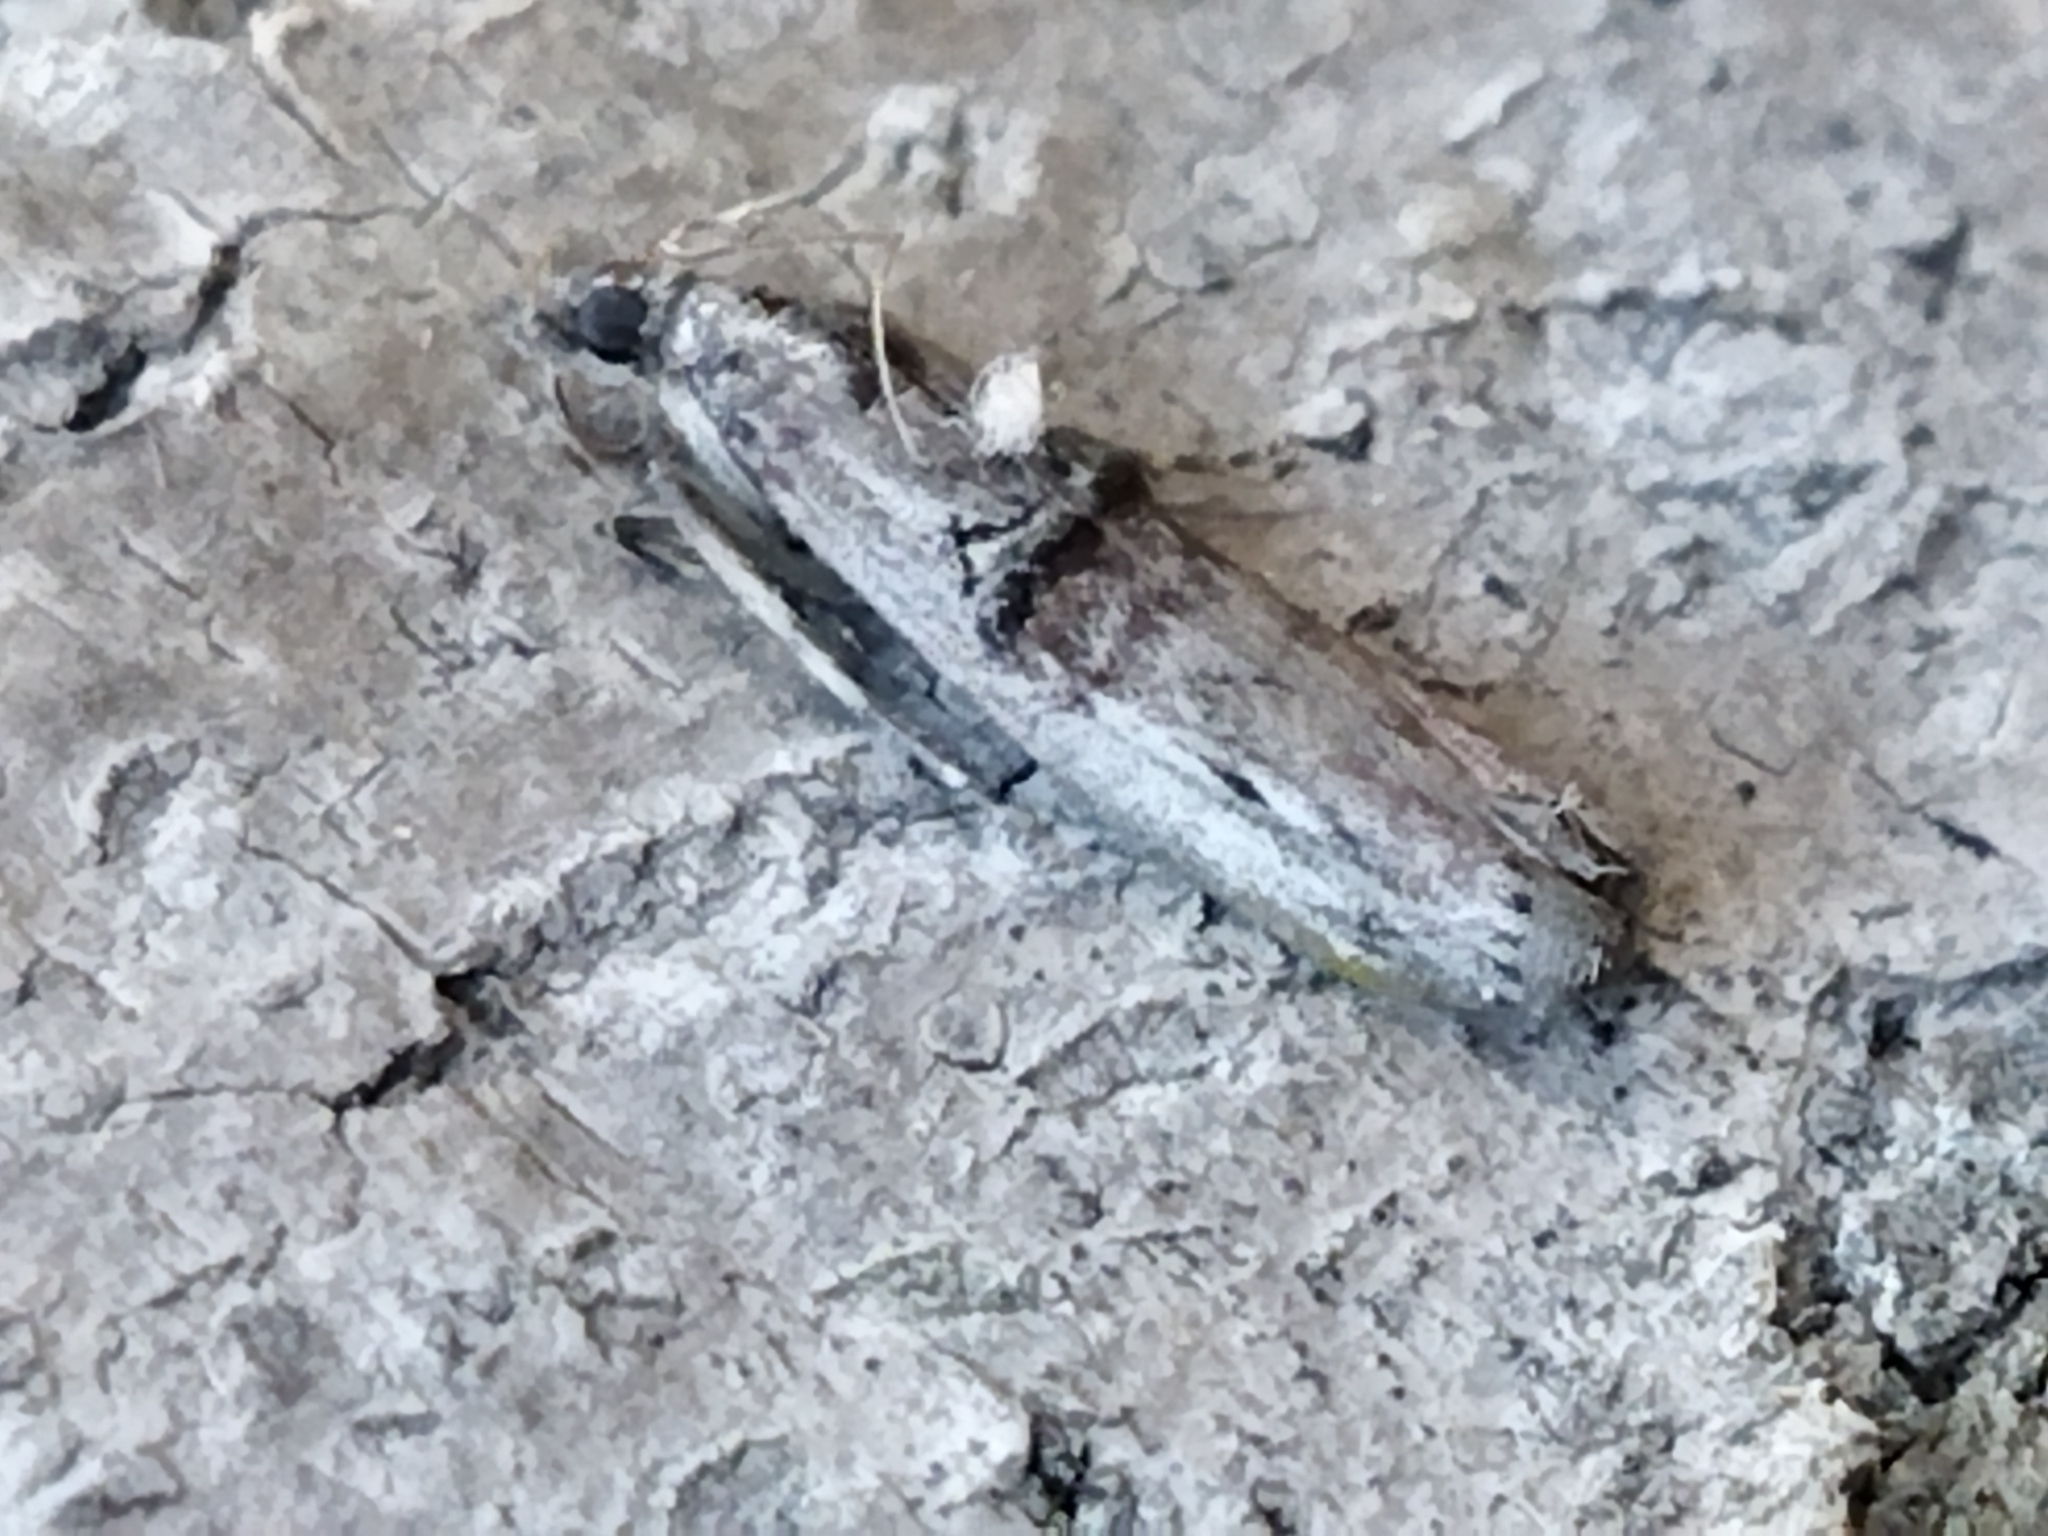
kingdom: Animalia
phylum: Arthropoda
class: Insecta
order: Lepidoptera
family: Pyralidae
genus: Nephopterix
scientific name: Nephopterix angustella
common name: Spindle knot-horn
